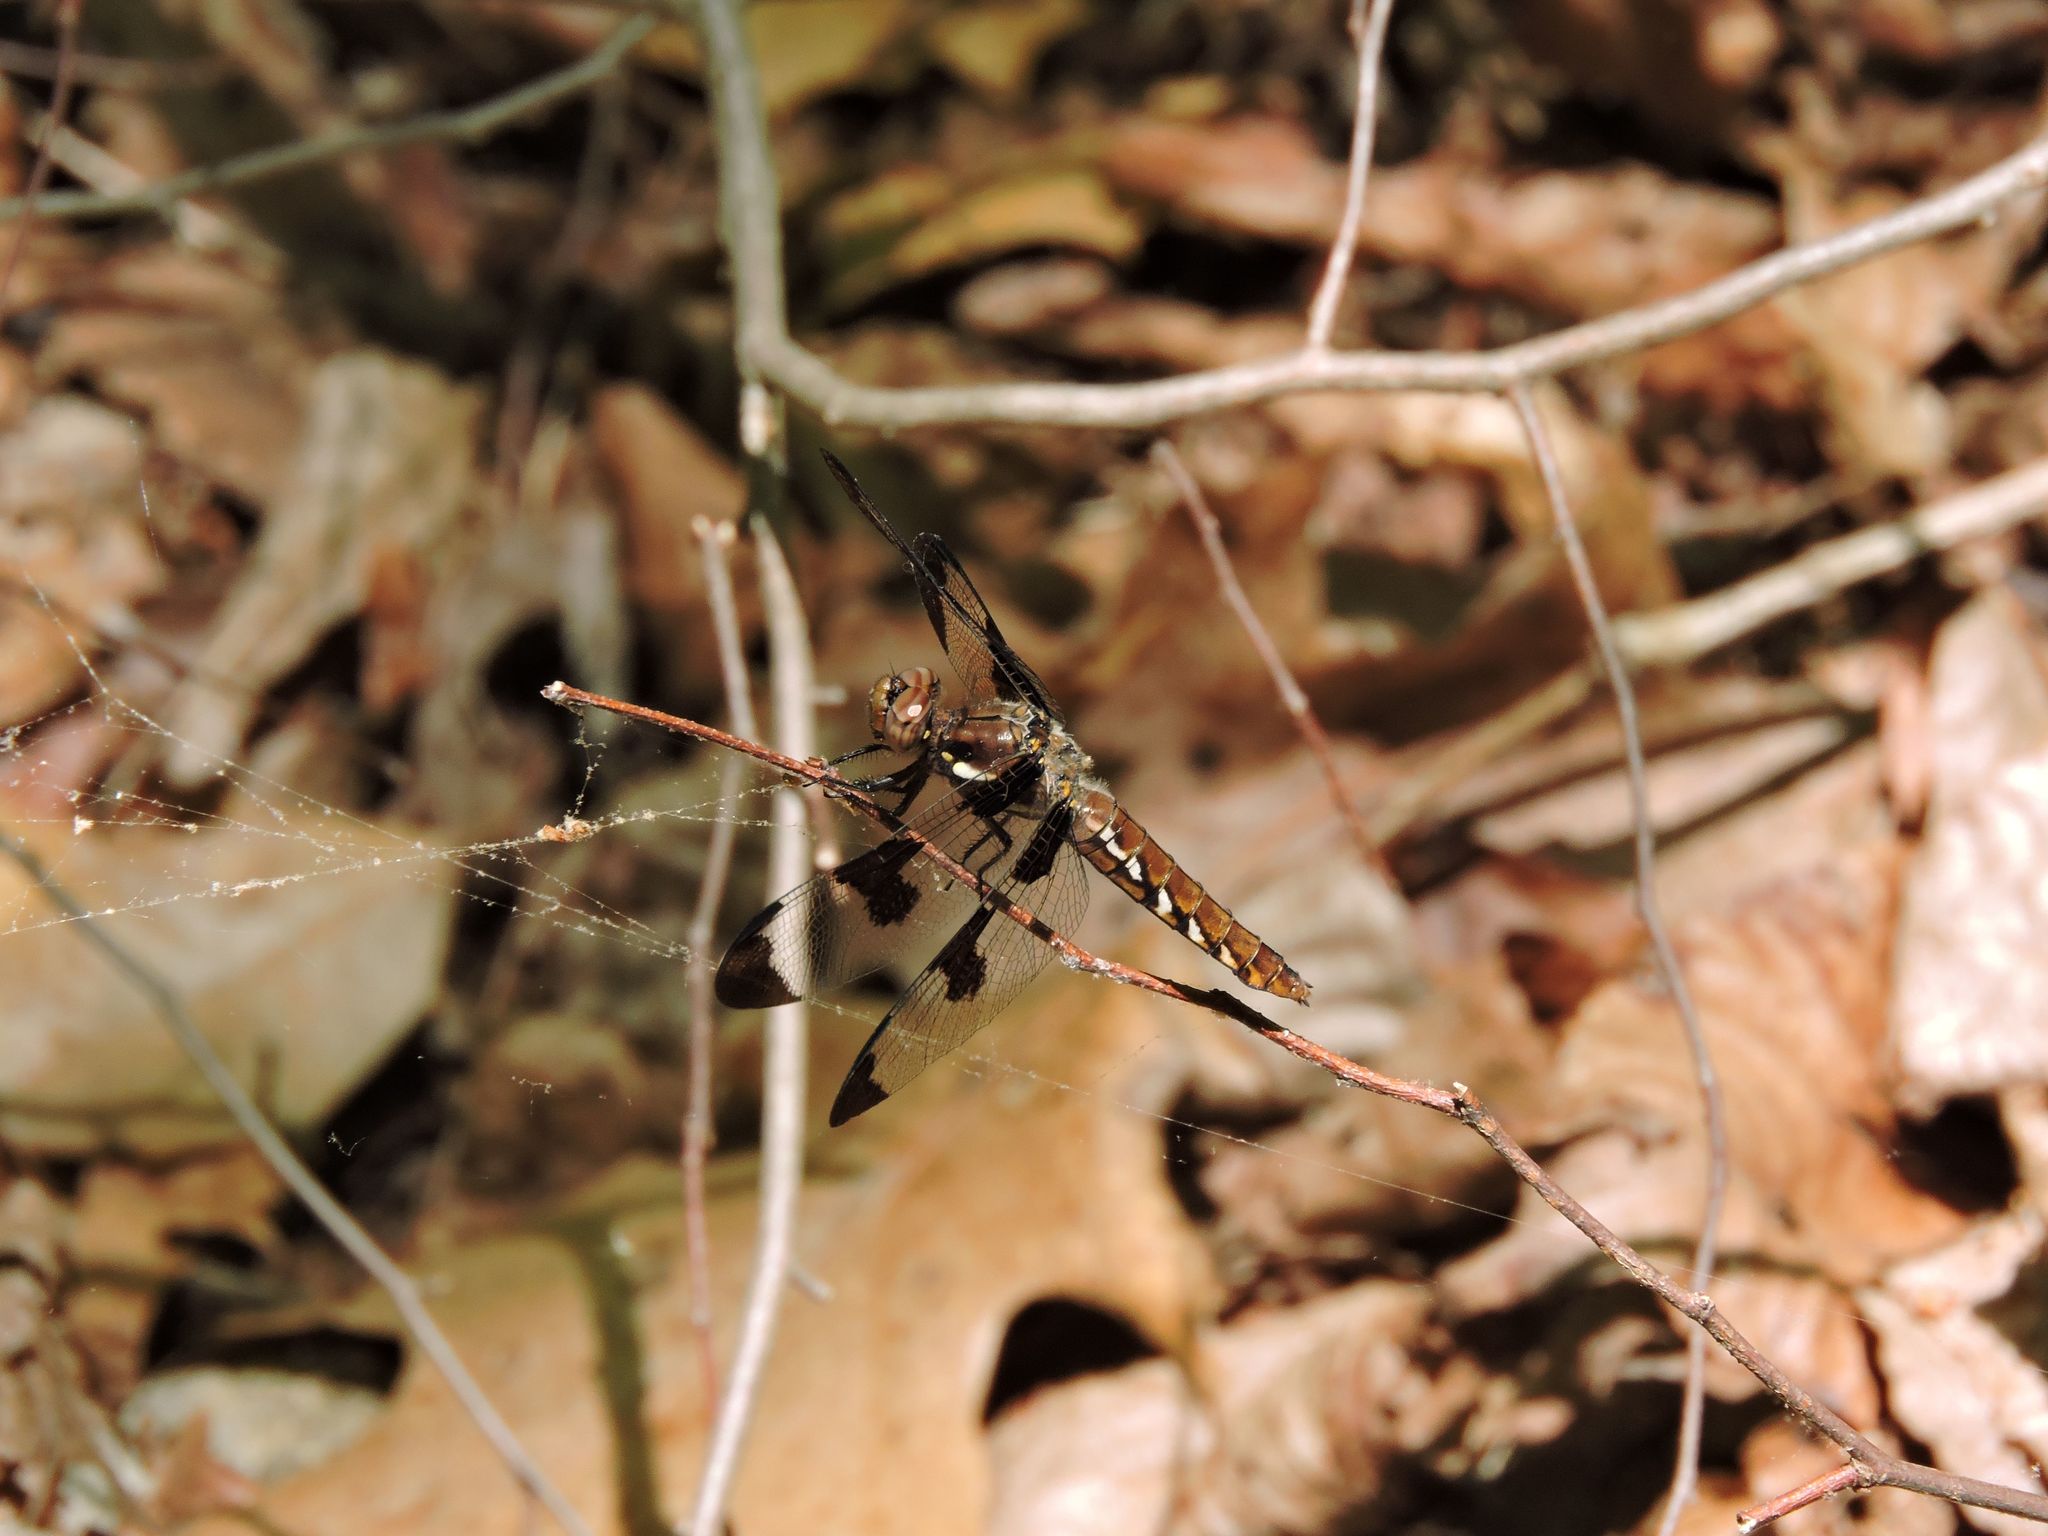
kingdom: Animalia
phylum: Arthropoda
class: Insecta
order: Odonata
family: Libellulidae
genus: Plathemis
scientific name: Plathemis lydia
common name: Common whitetail
